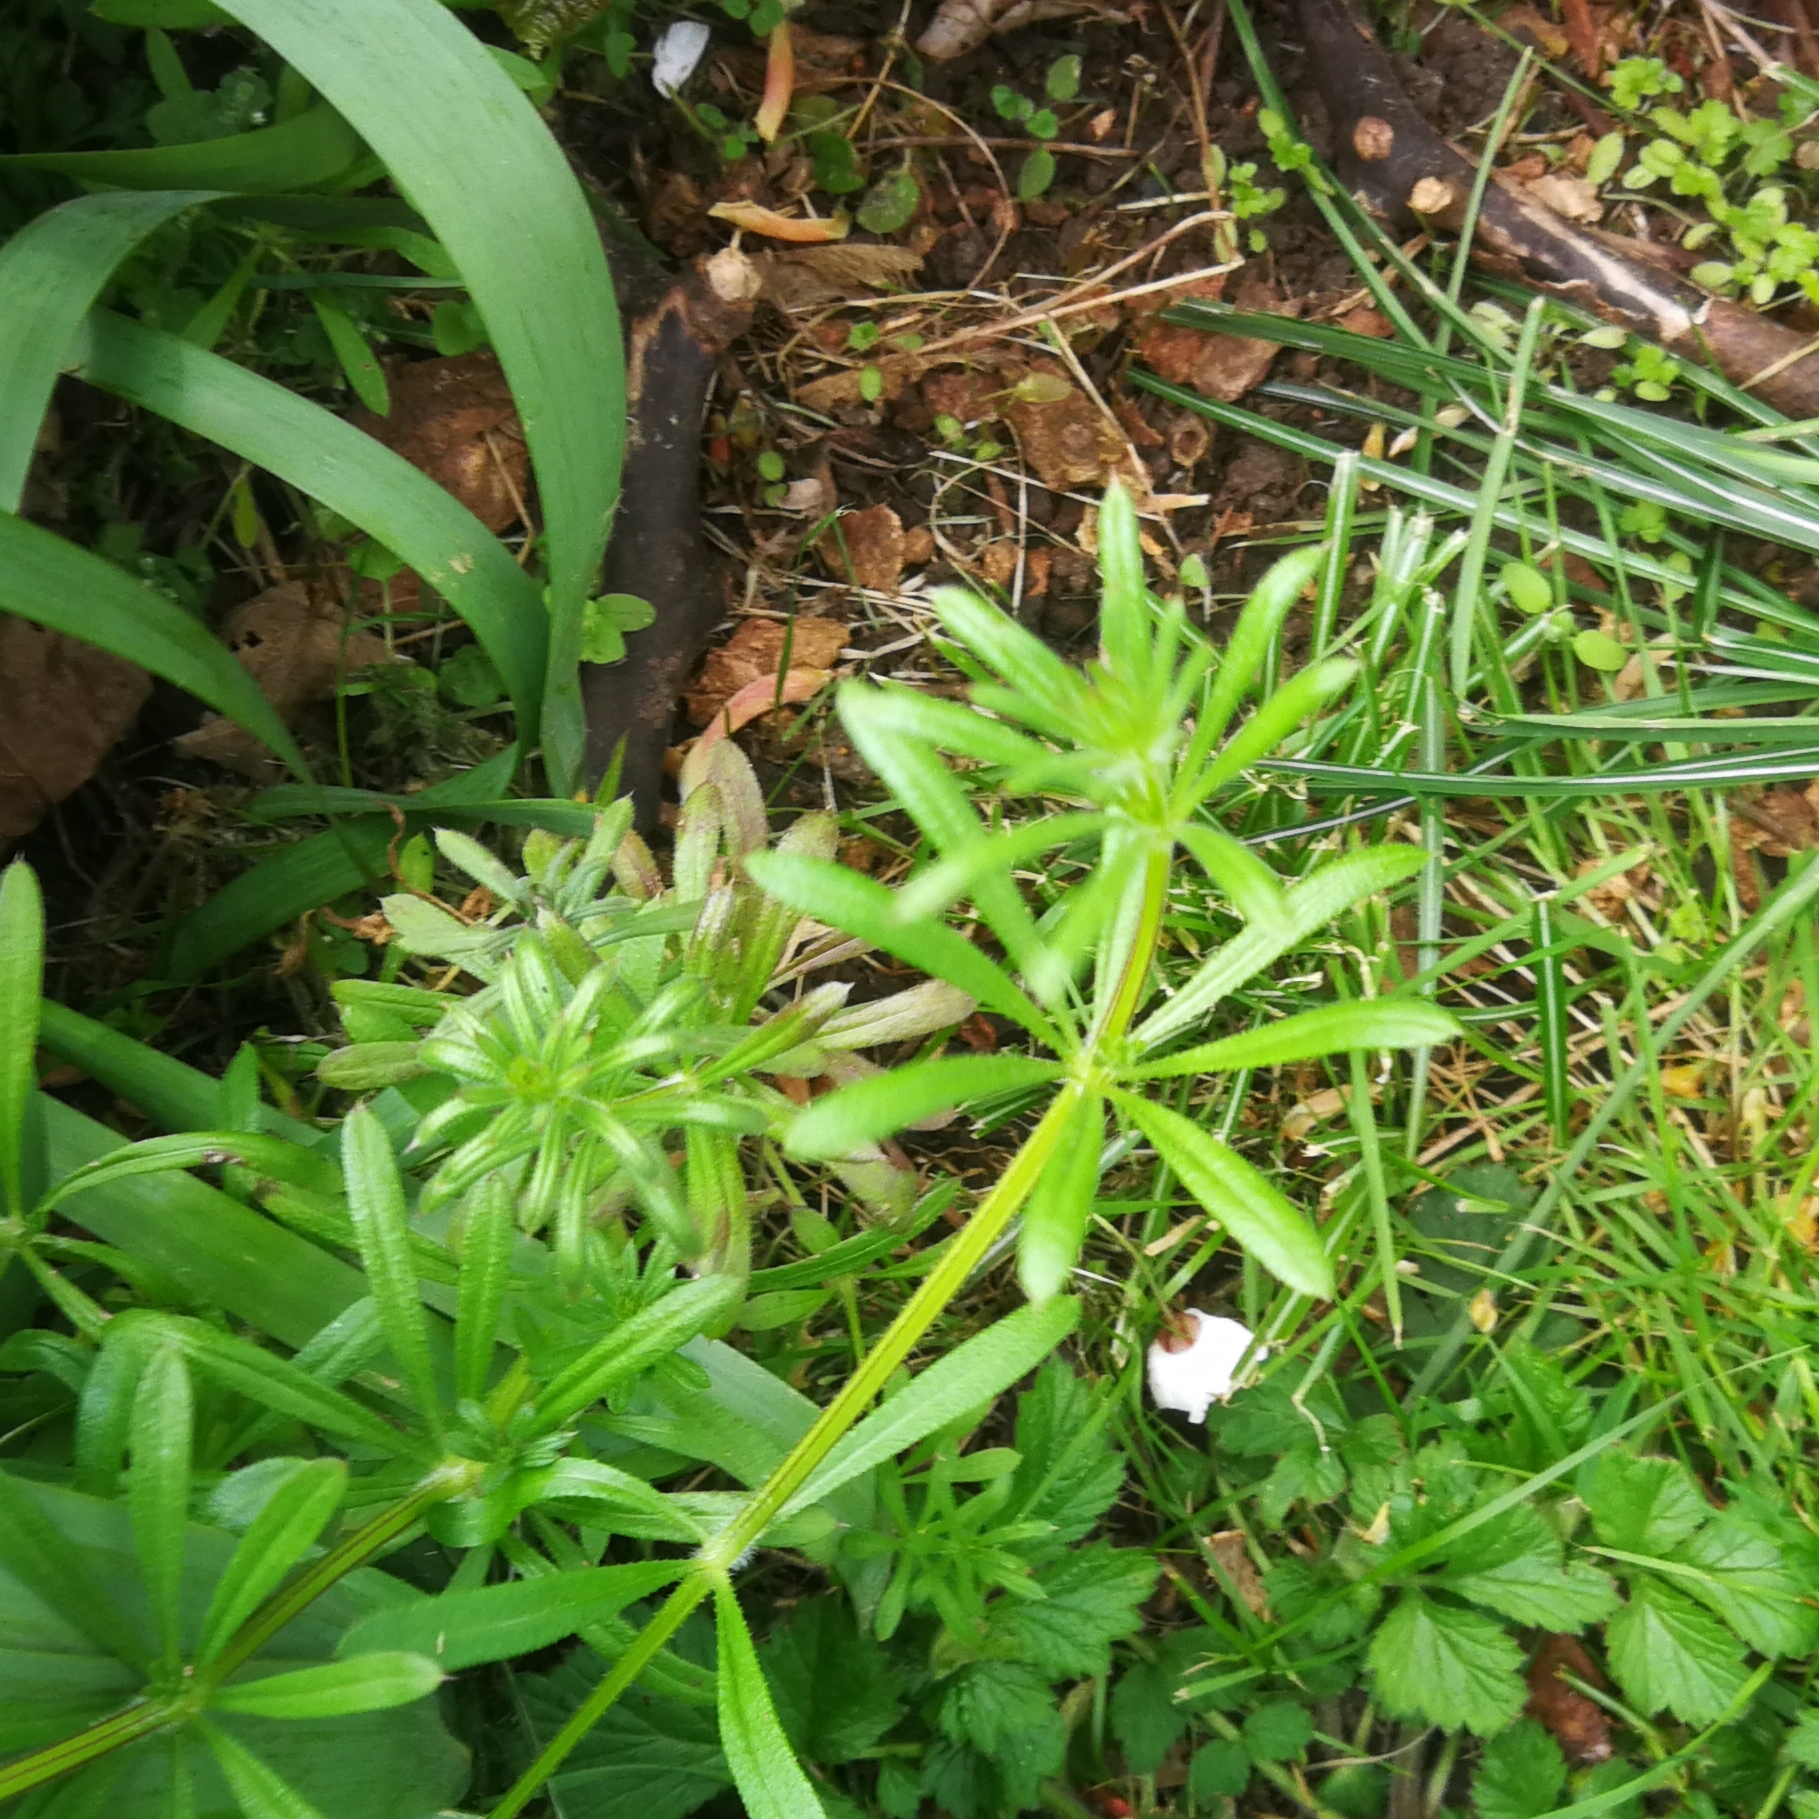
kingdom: Plantae
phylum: Tracheophyta
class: Magnoliopsida
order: Gentianales
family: Rubiaceae
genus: Galium
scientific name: Galium aparine
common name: Cleavers
